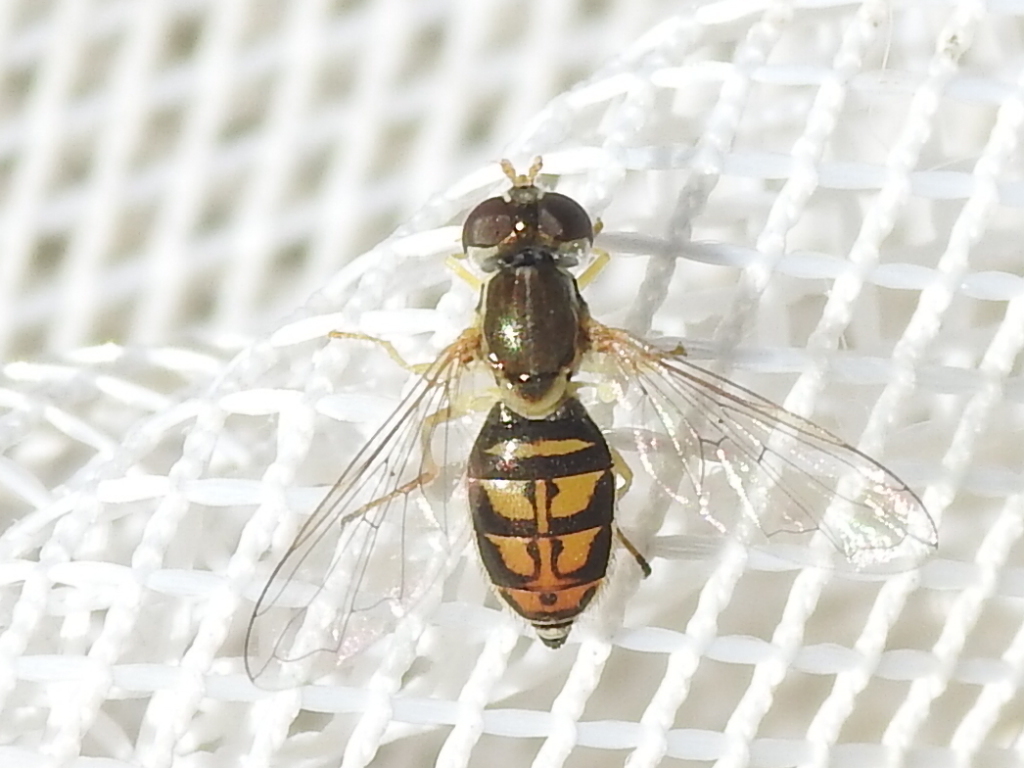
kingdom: Animalia
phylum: Arthropoda
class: Insecta
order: Diptera
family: Syrphidae
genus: Toxomerus
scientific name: Toxomerus marginatus
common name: Syrphid fly
